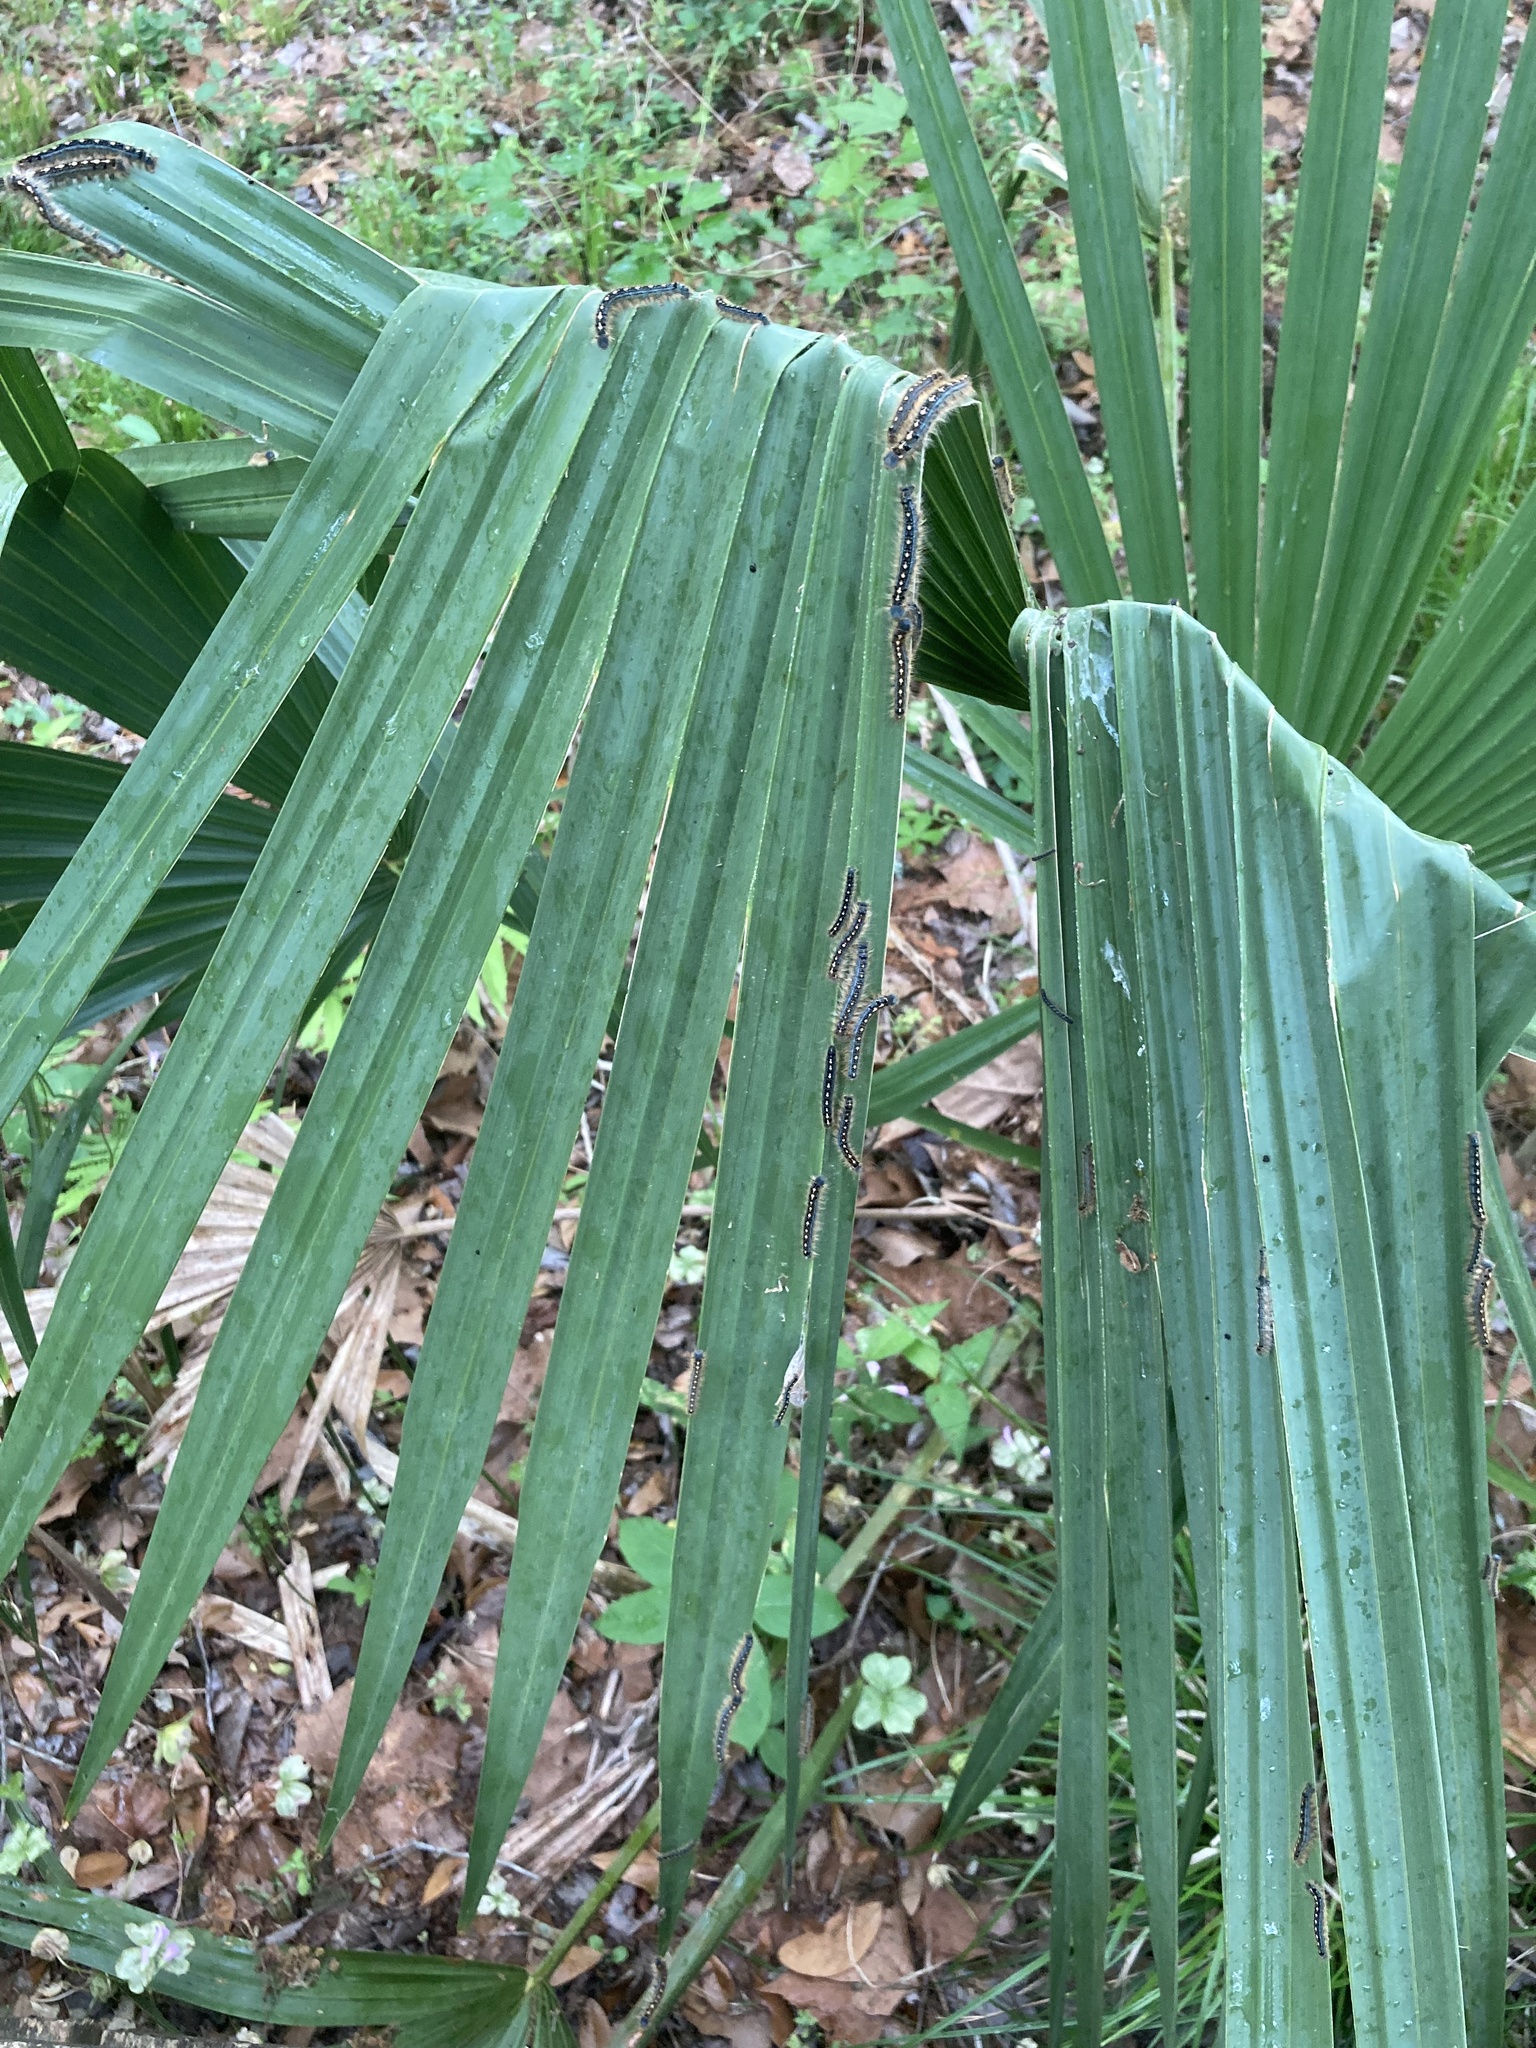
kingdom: Animalia
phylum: Arthropoda
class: Insecta
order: Lepidoptera
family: Lasiocampidae
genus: Malacosoma
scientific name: Malacosoma disstria
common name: Forest tent caterpillar
